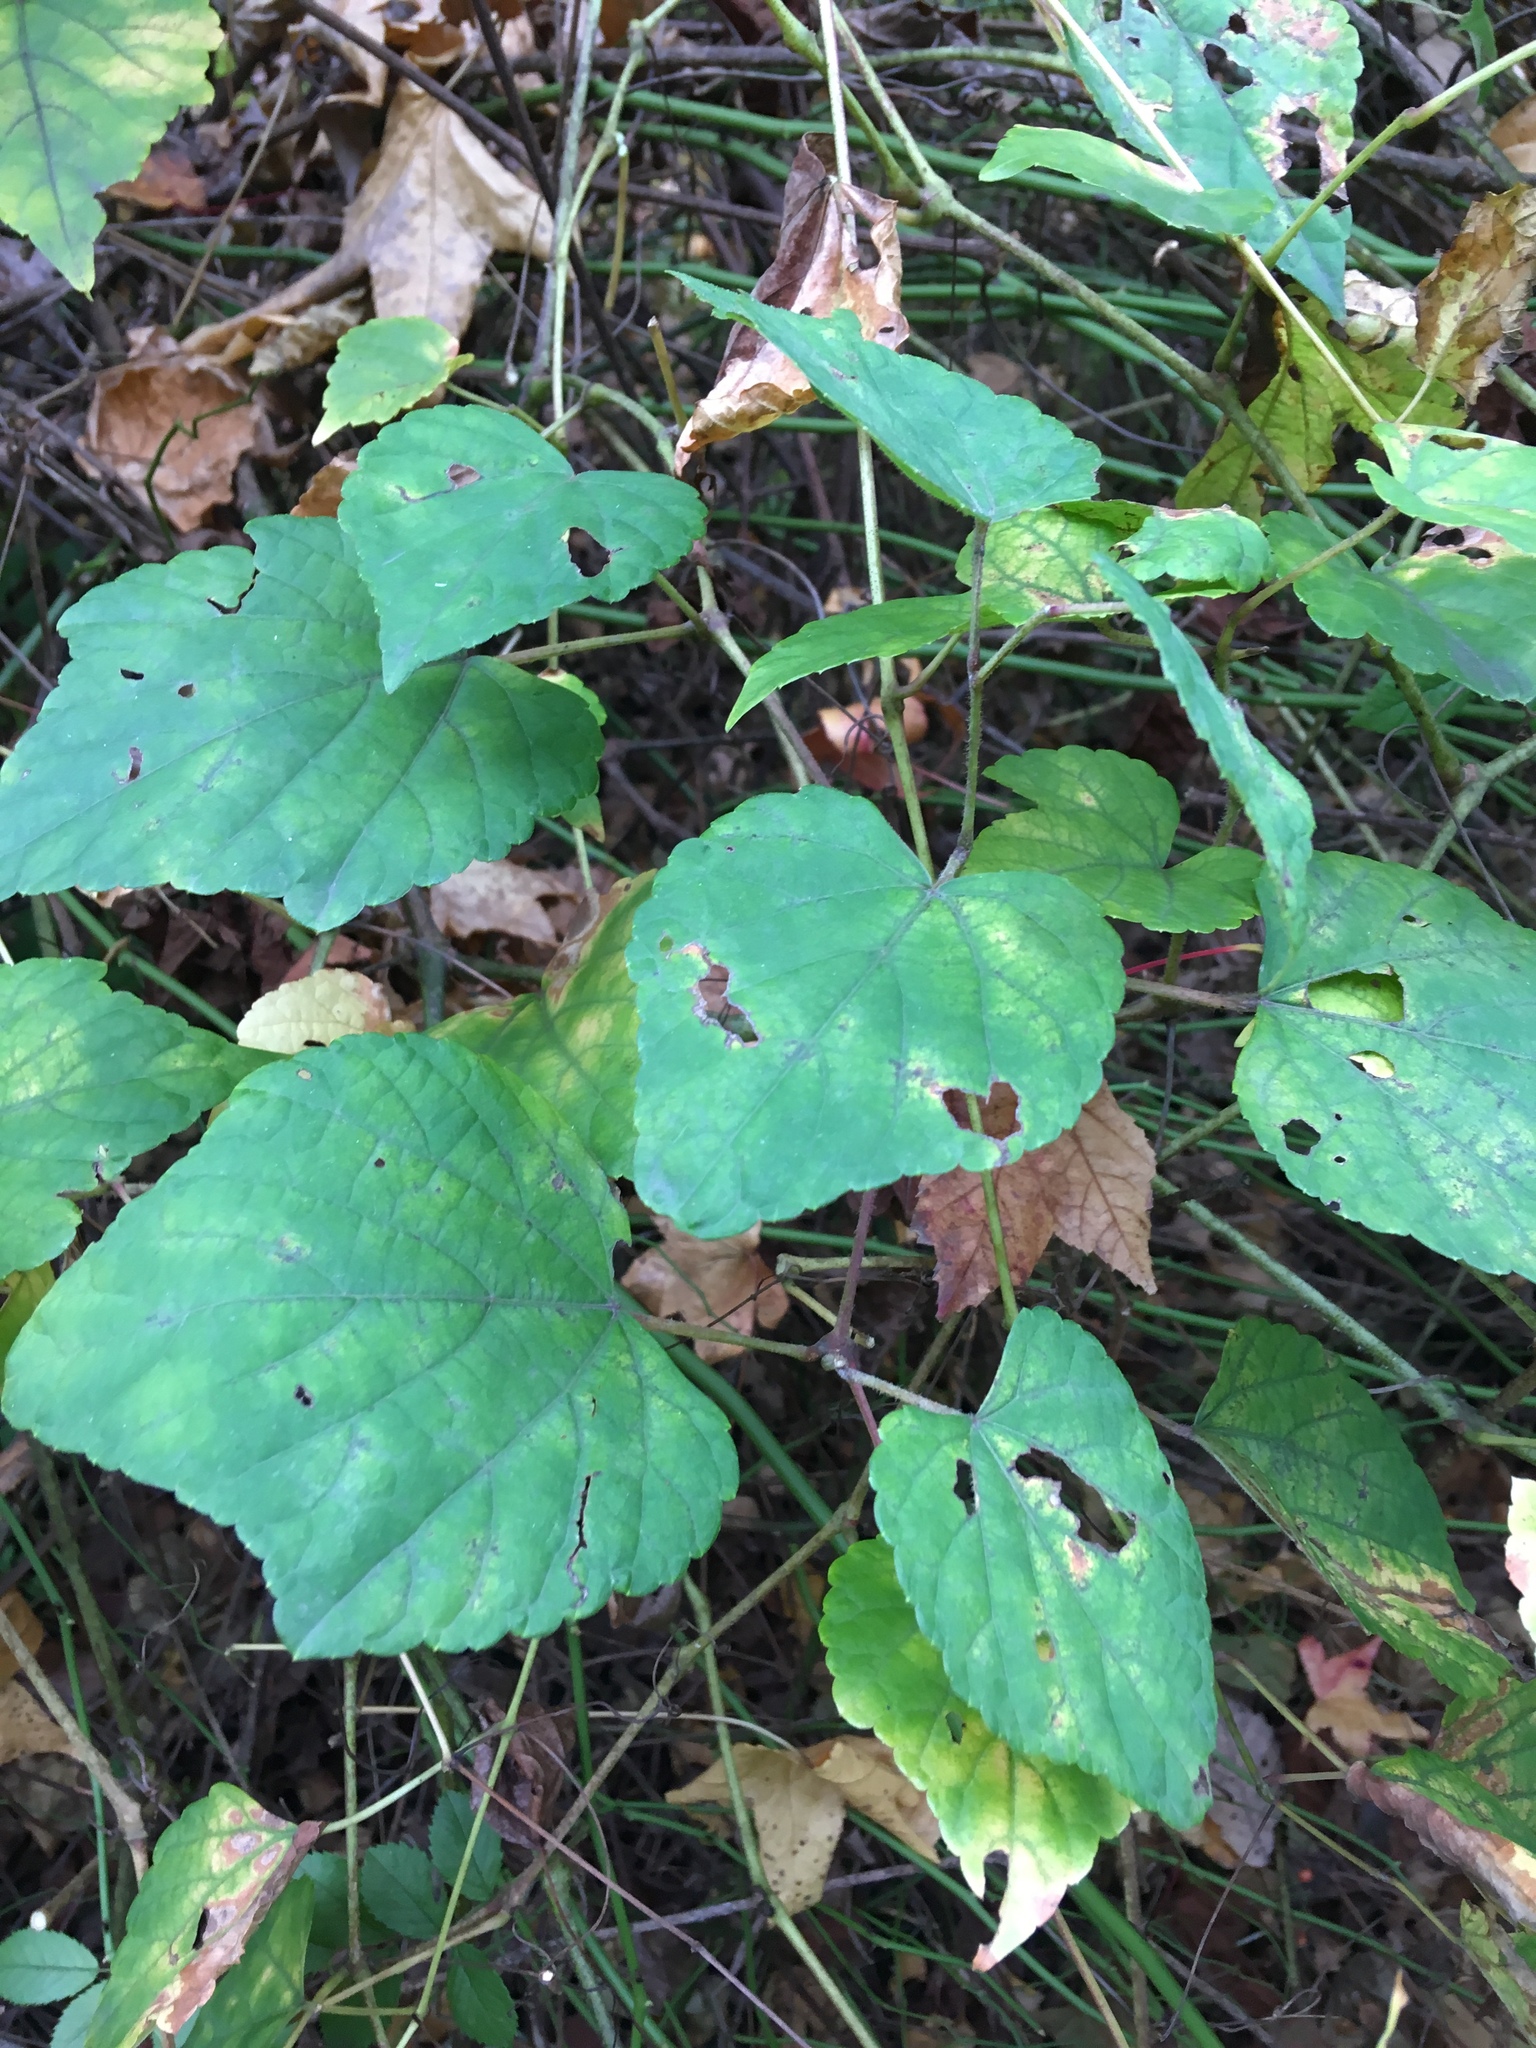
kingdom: Plantae
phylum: Tracheophyta
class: Magnoliopsida
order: Vitales
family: Vitaceae
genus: Ampelopsis
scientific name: Ampelopsis glandulosa
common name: Amur peppervine
